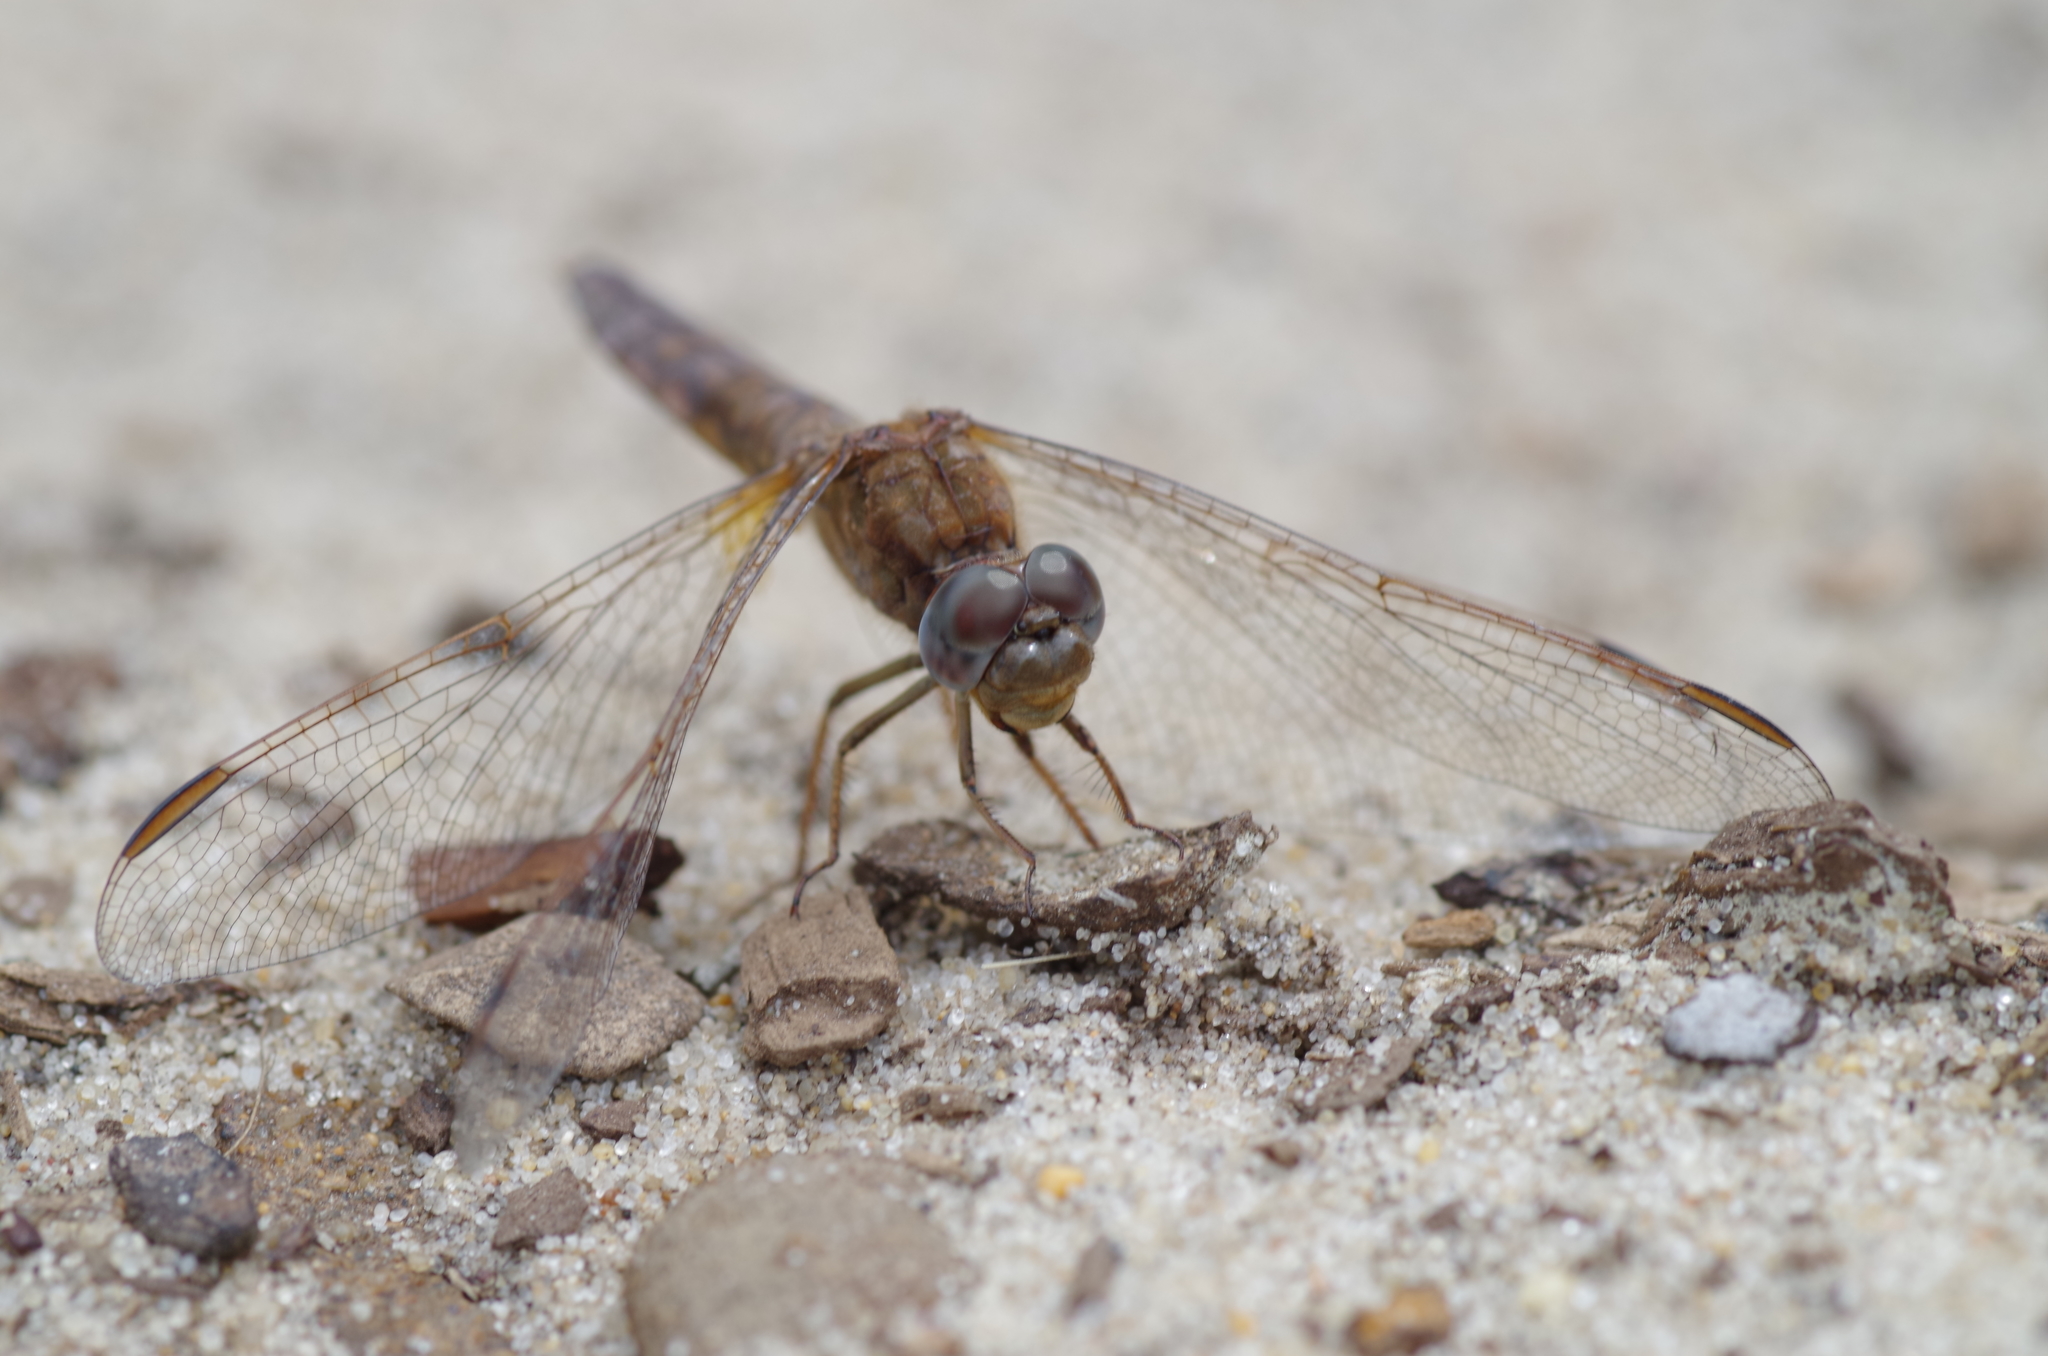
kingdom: Animalia
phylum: Arthropoda
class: Insecta
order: Odonata
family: Libellulidae
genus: Crocothemis
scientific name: Crocothemis erythraea
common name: Scarlet dragonfly
